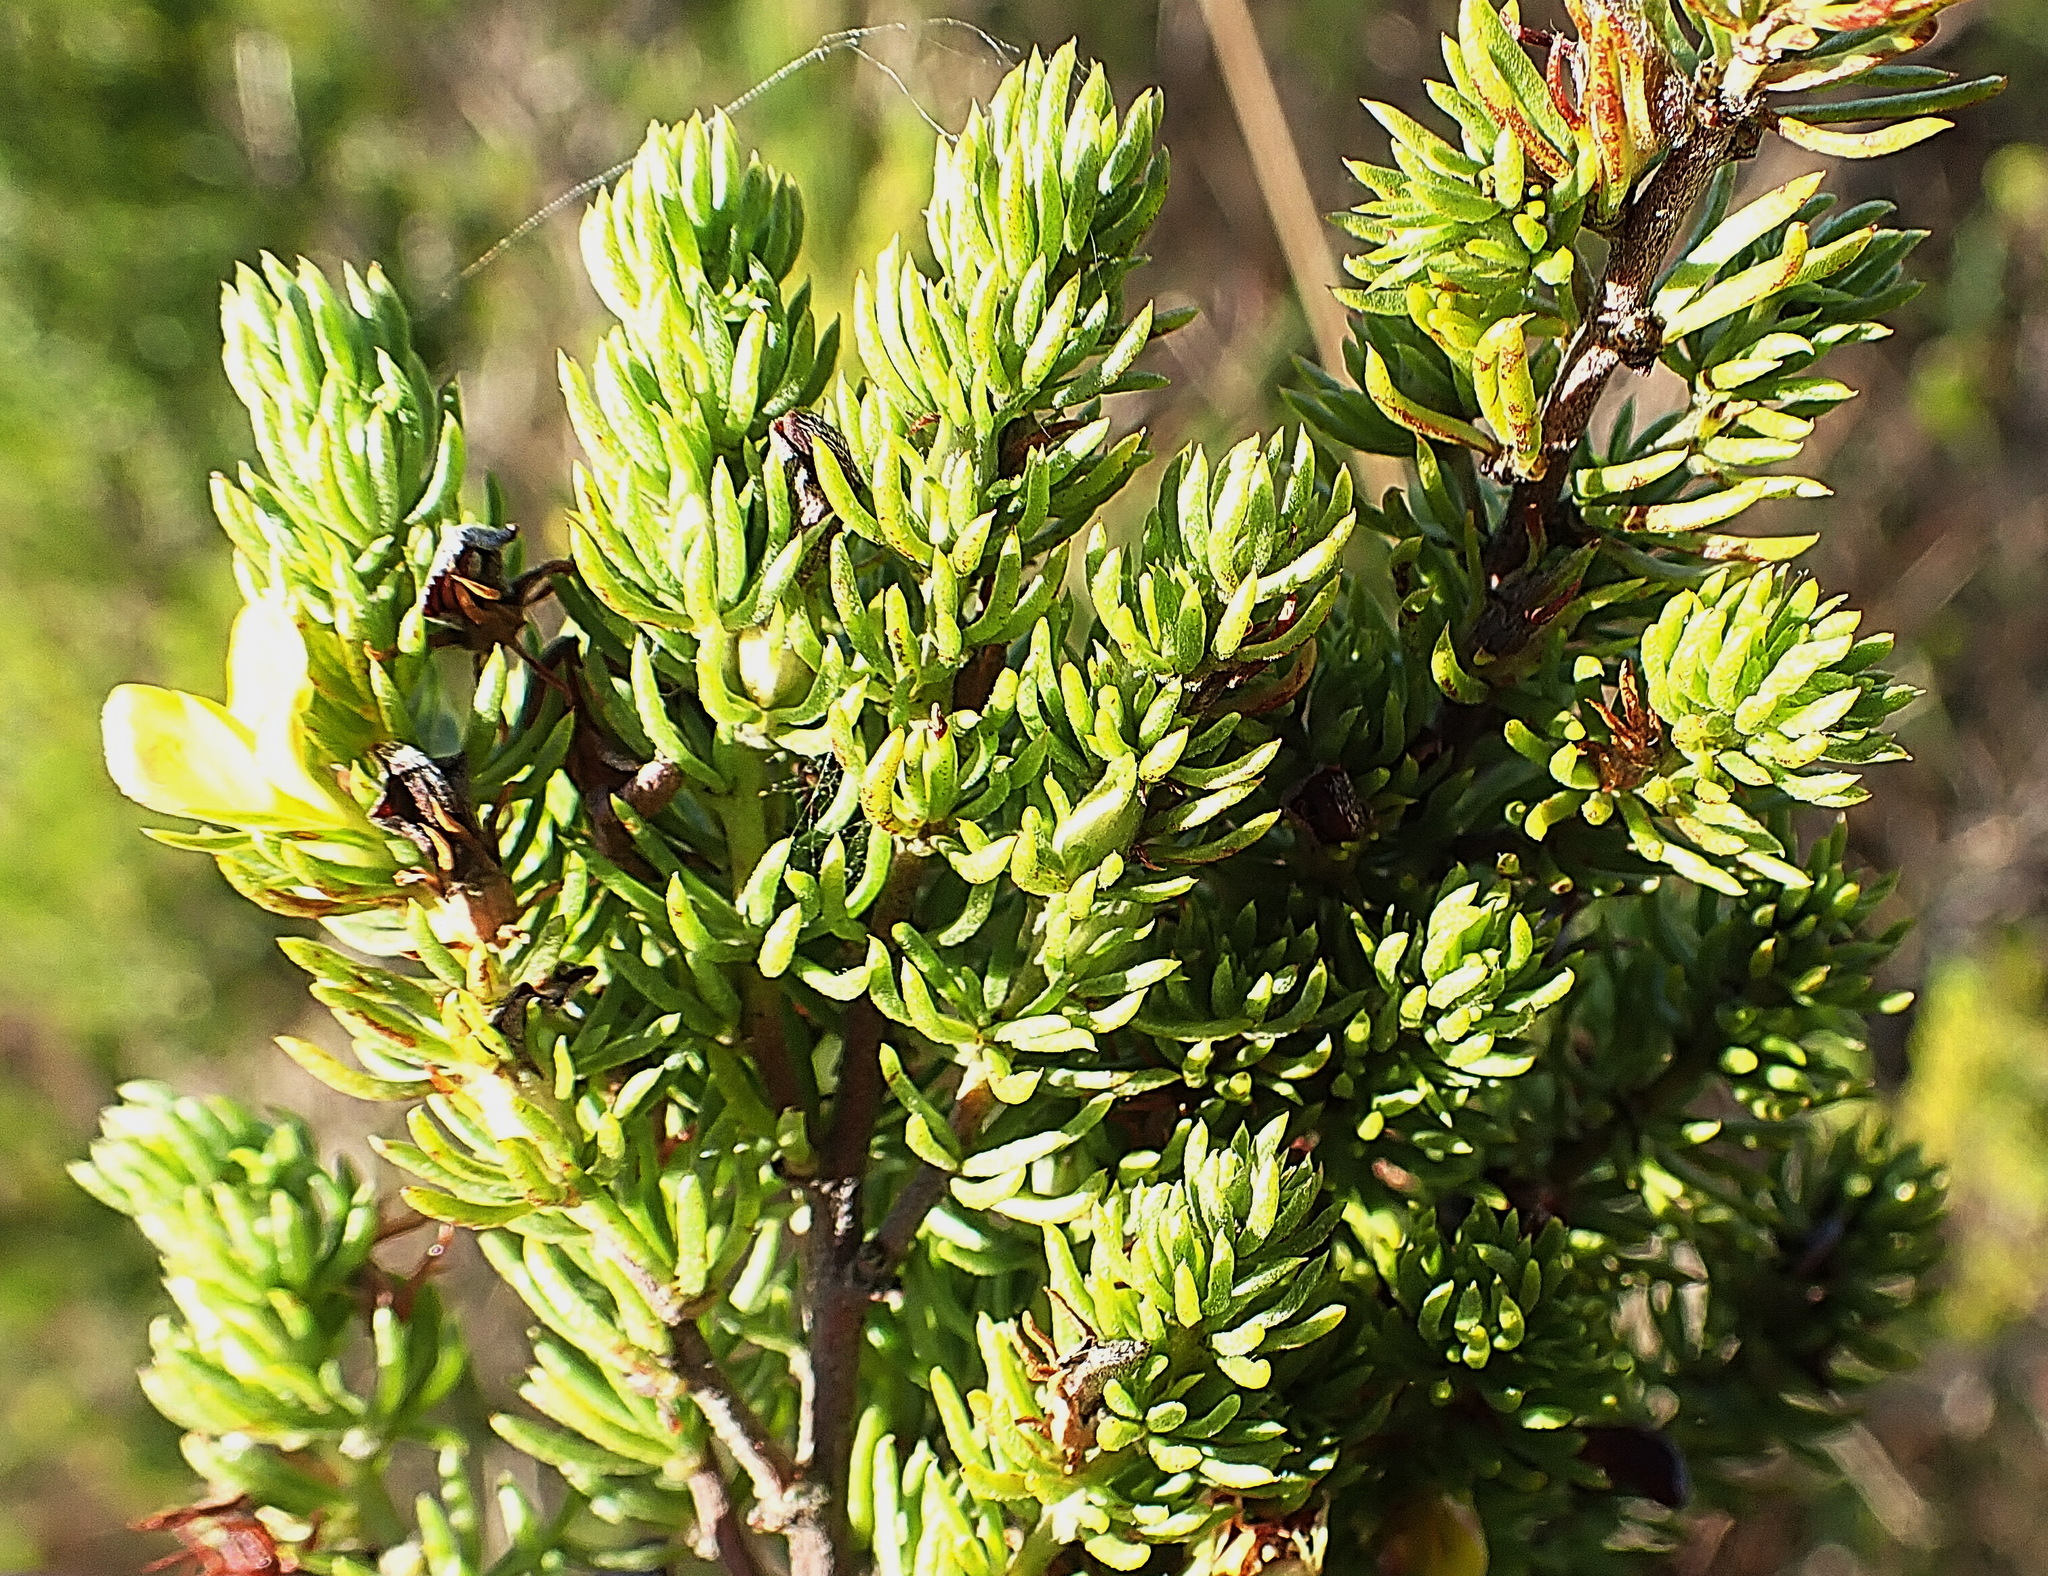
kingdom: Plantae
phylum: Tracheophyta
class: Magnoliopsida
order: Fabales
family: Fabaceae
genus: Aspalathus
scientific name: Aspalathus asparagoides
